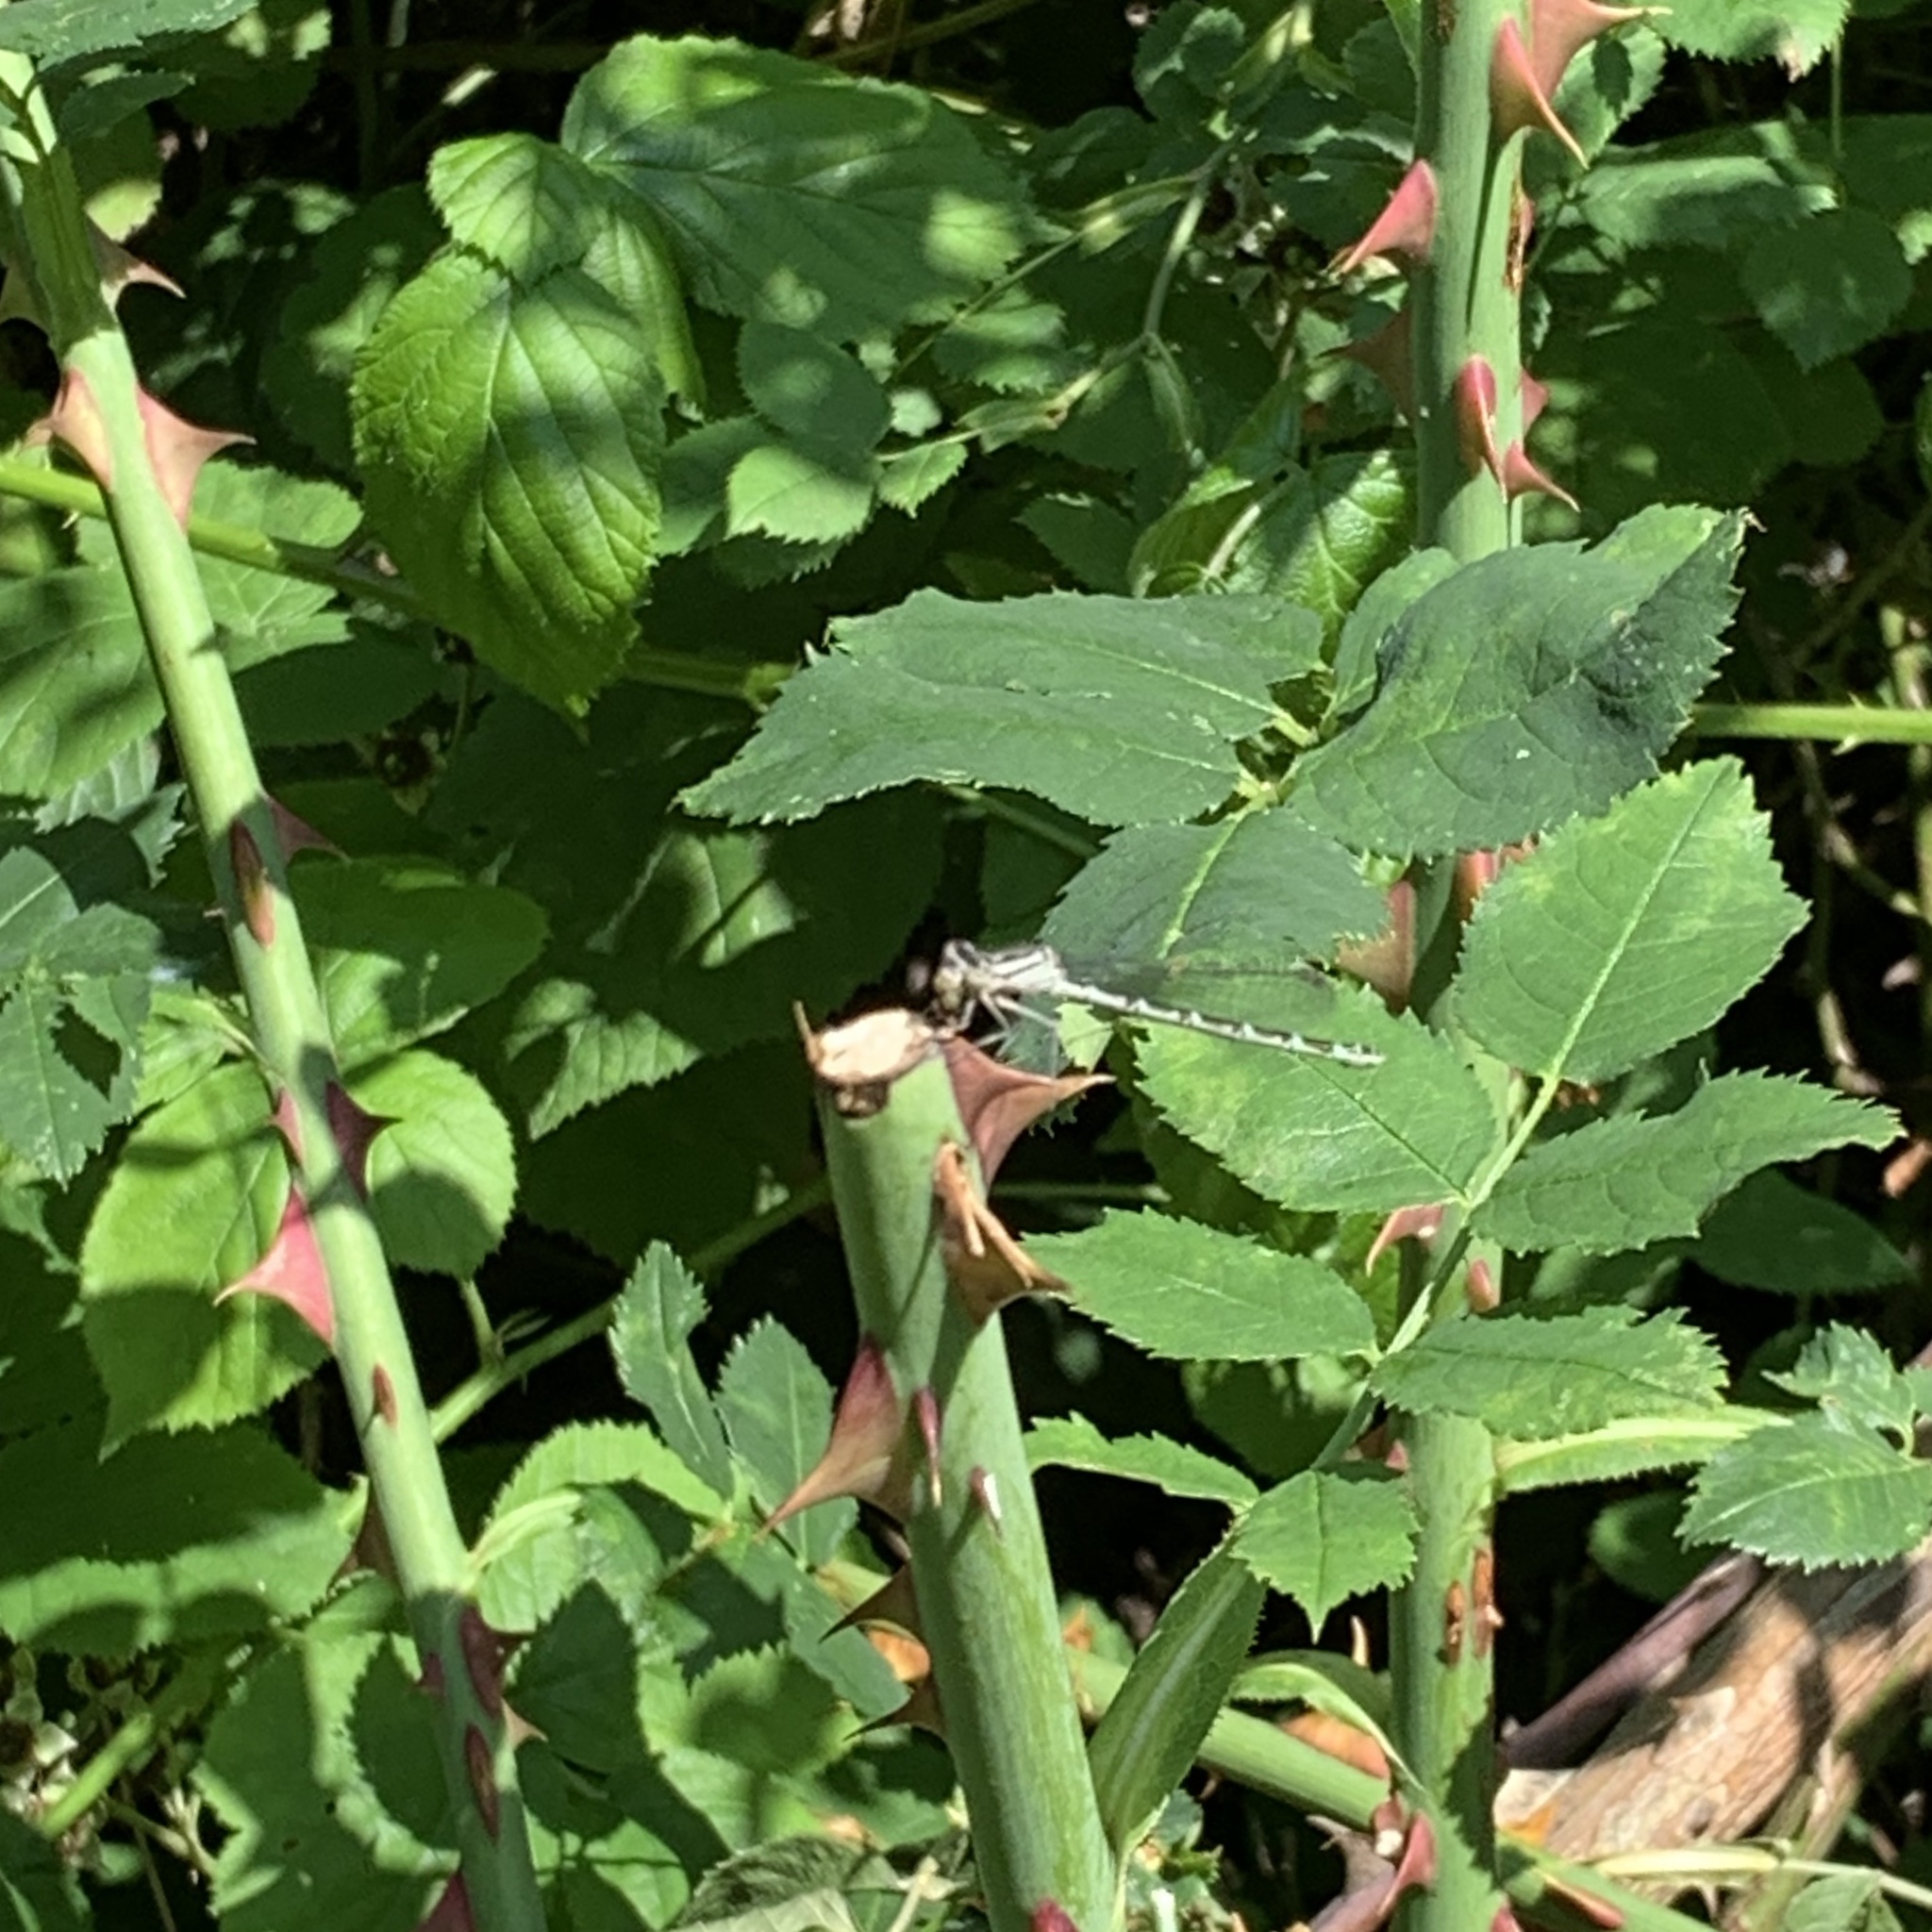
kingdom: Animalia
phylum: Arthropoda
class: Insecta
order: Odonata
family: Coenagrionidae
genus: Enallagma
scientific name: Enallagma cyathigerum
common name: Common blue damselfly
